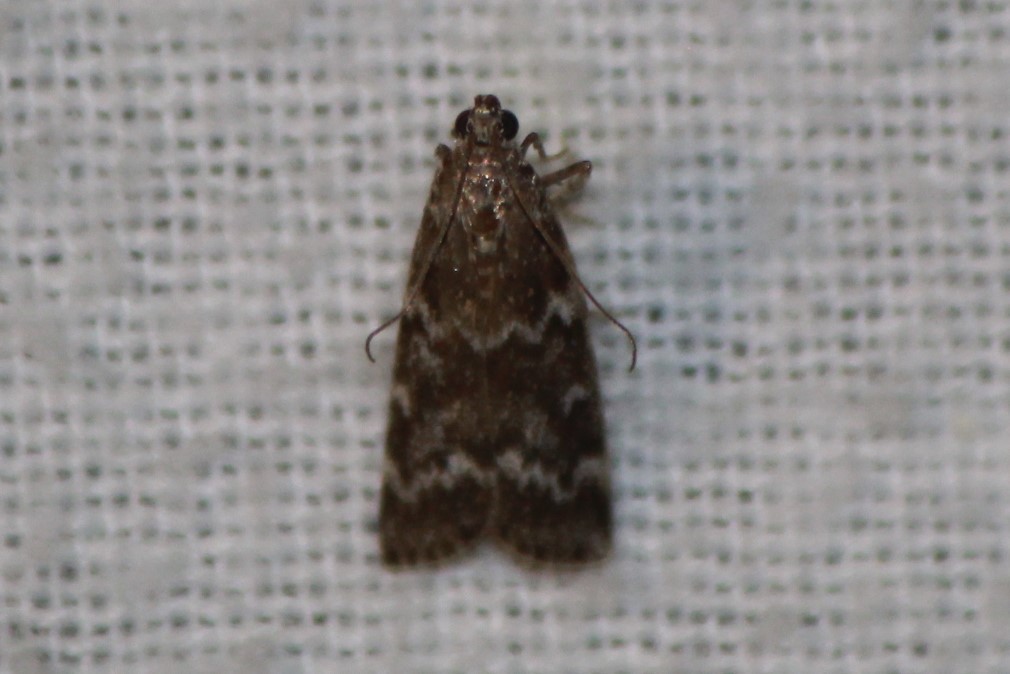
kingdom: Animalia
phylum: Arthropoda
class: Insecta
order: Lepidoptera
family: Pyralidae
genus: Dioryctria
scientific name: Dioryctria reniculelloides
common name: Spruce coneworm moth
